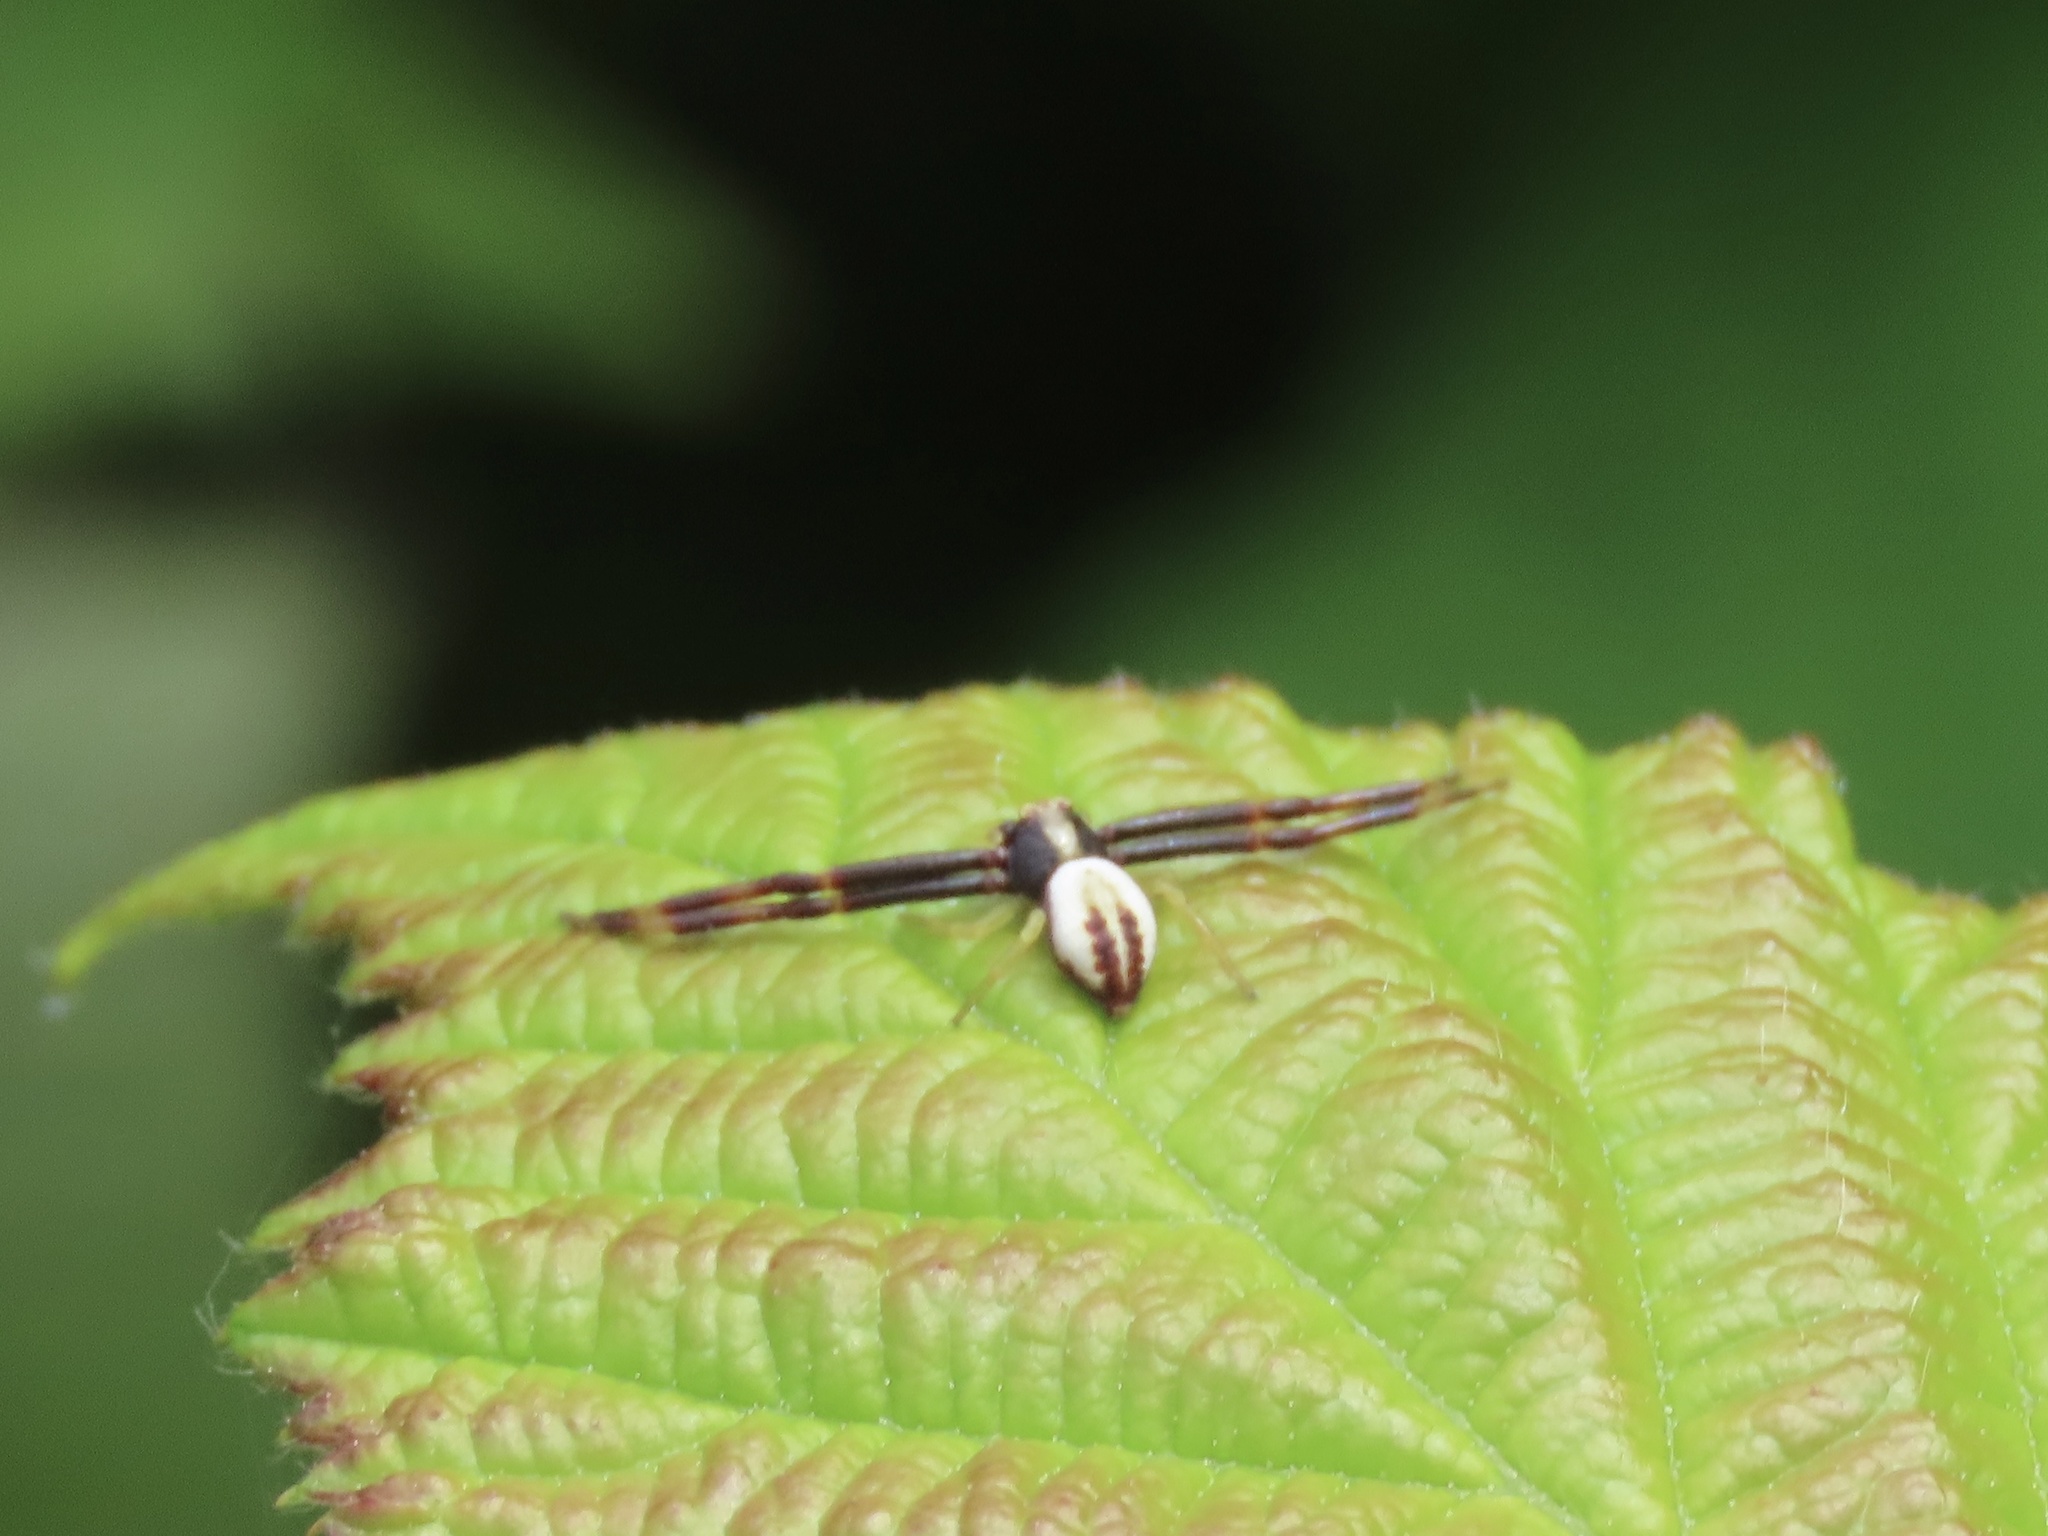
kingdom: Animalia
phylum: Arthropoda
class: Arachnida
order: Araneae
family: Thomisidae
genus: Misumena
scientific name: Misumena vatia
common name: Goldenrod crab spider
